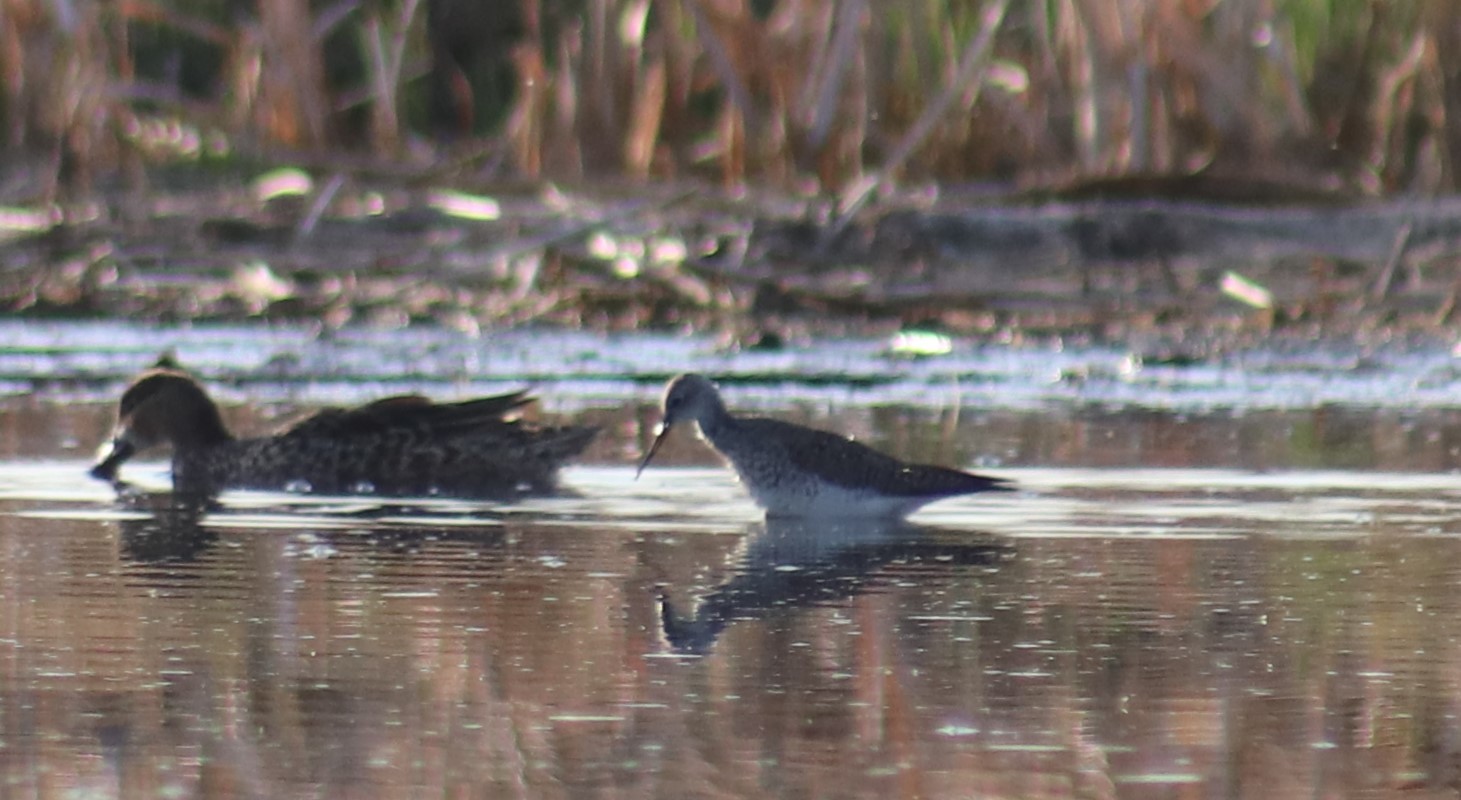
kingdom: Animalia
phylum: Chordata
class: Aves
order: Charadriiformes
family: Scolopacidae
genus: Tringa
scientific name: Tringa flavipes
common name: Lesser yellowlegs
